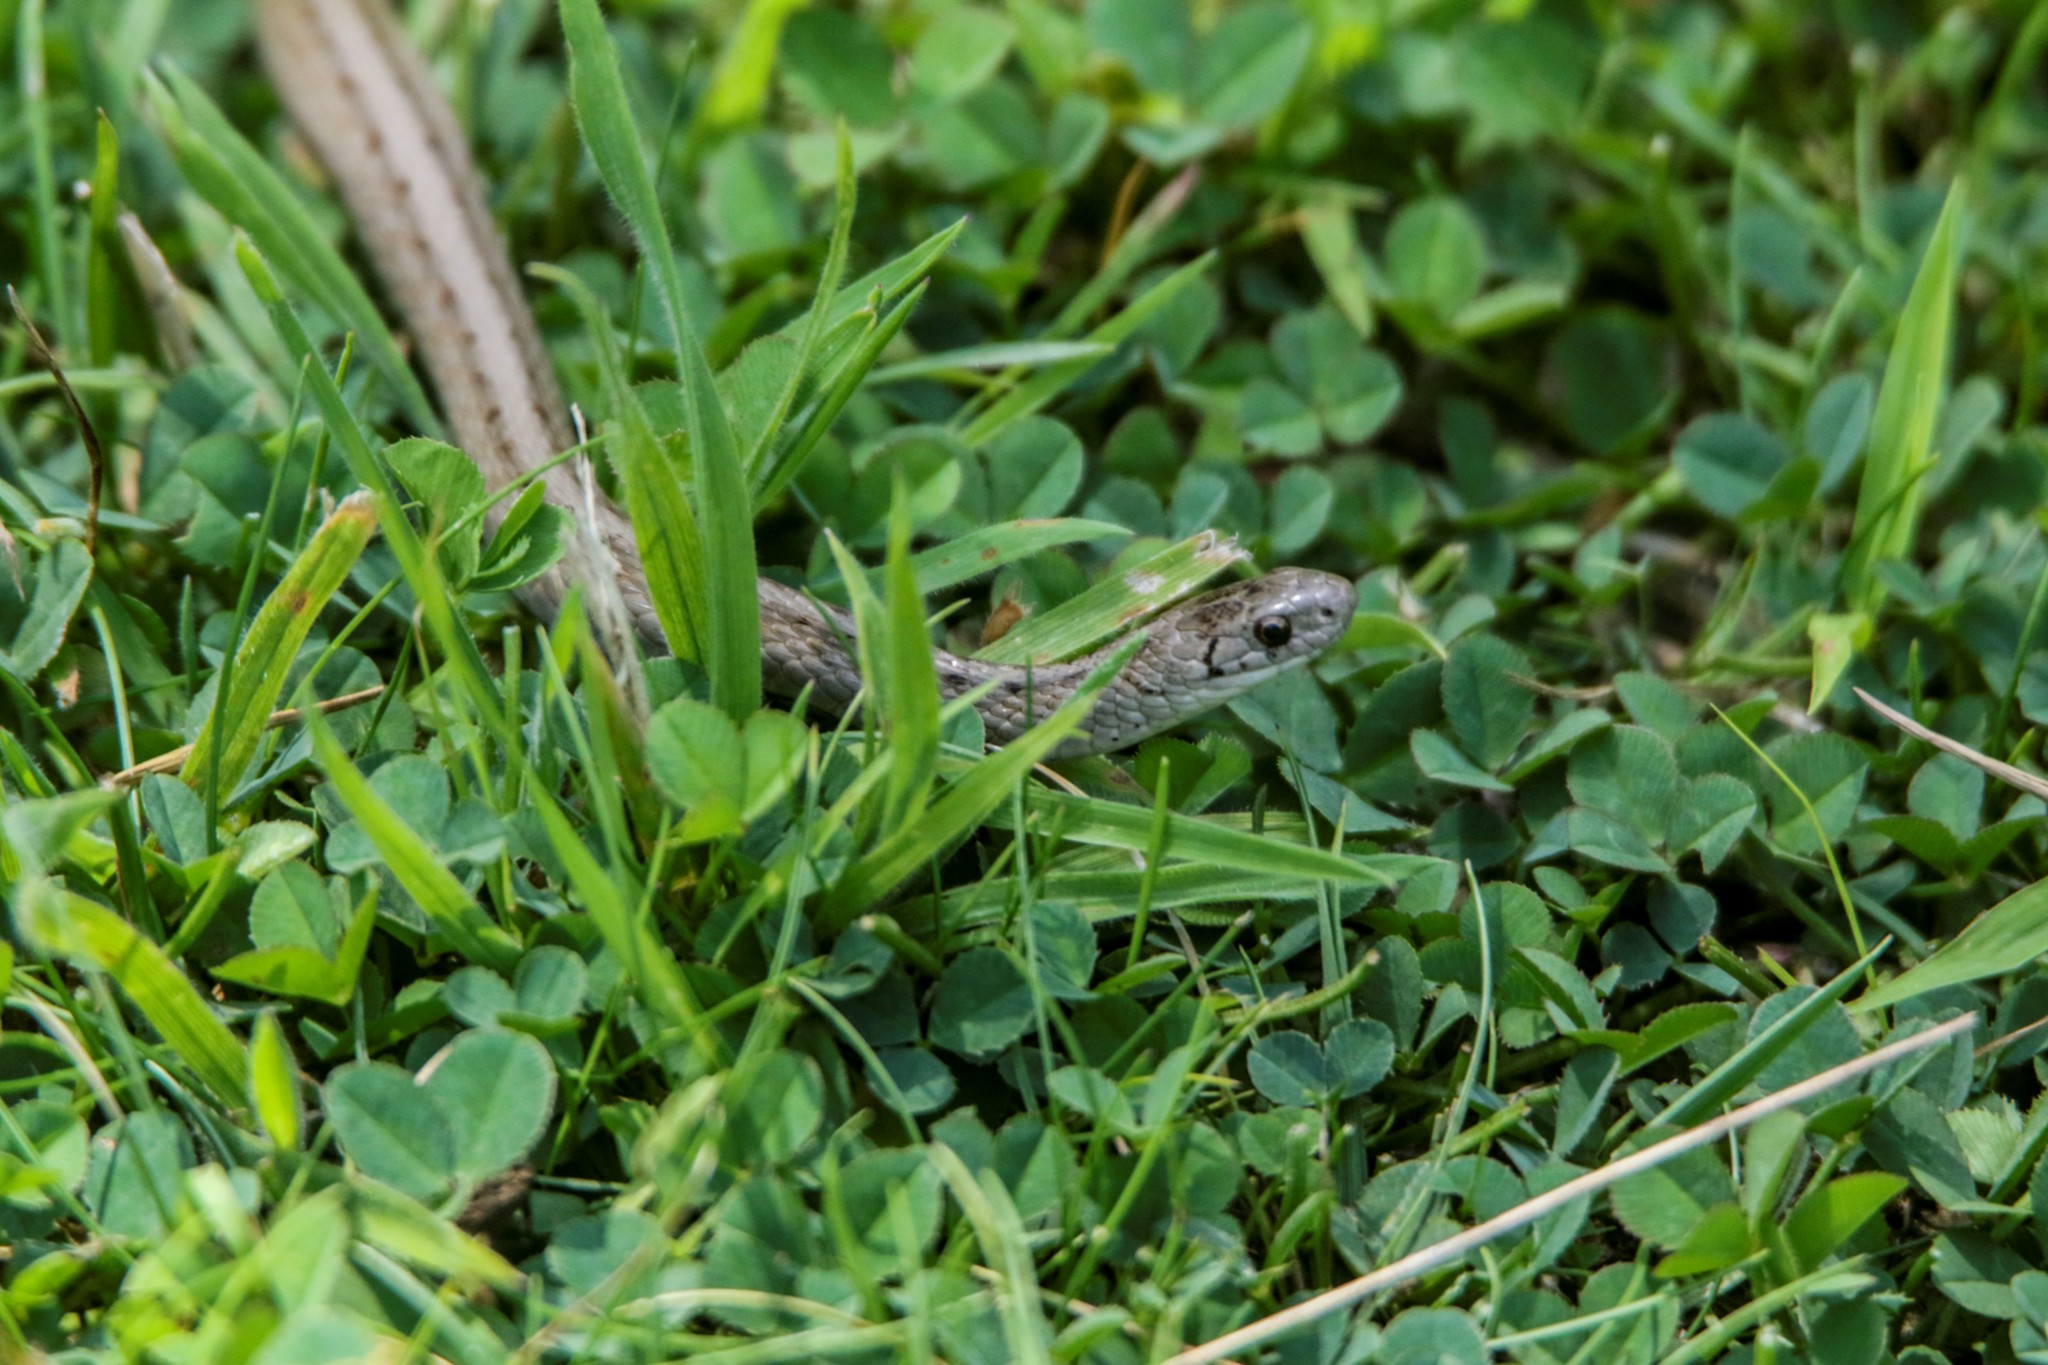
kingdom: Animalia
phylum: Chordata
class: Squamata
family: Colubridae
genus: Storeria
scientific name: Storeria dekayi
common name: (dekay’s) brown snake
